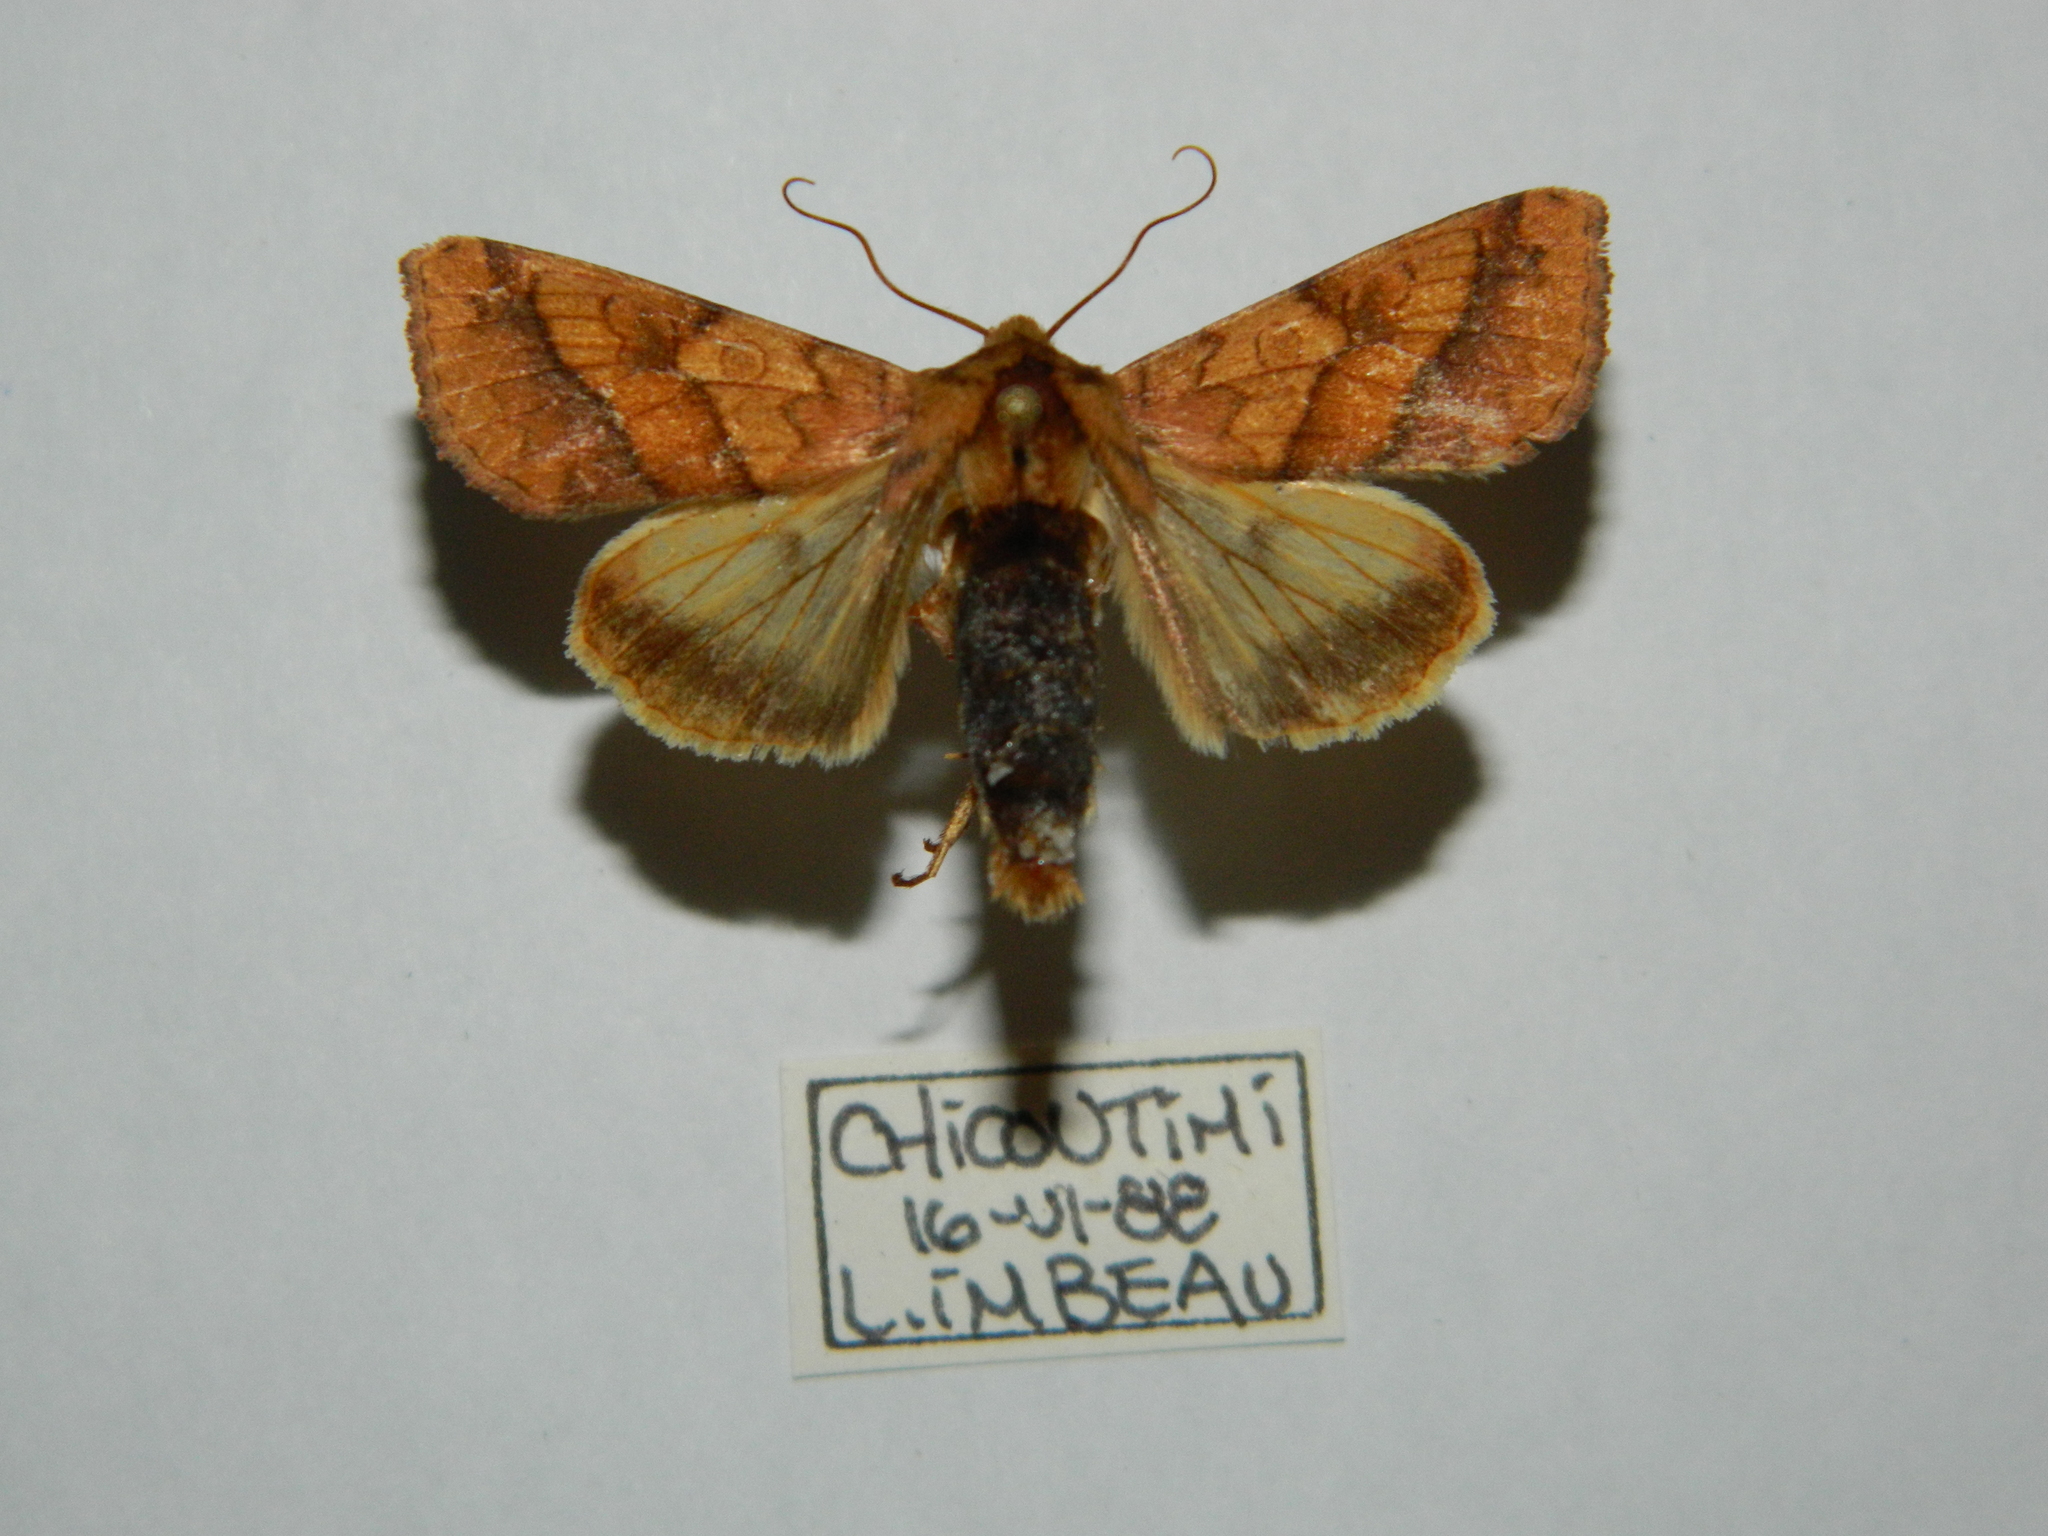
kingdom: Animalia
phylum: Arthropoda
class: Insecta
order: Lepidoptera
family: Noctuidae
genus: Pyrrhia
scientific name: Pyrrhia exprimens
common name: Purple-lined sallow
